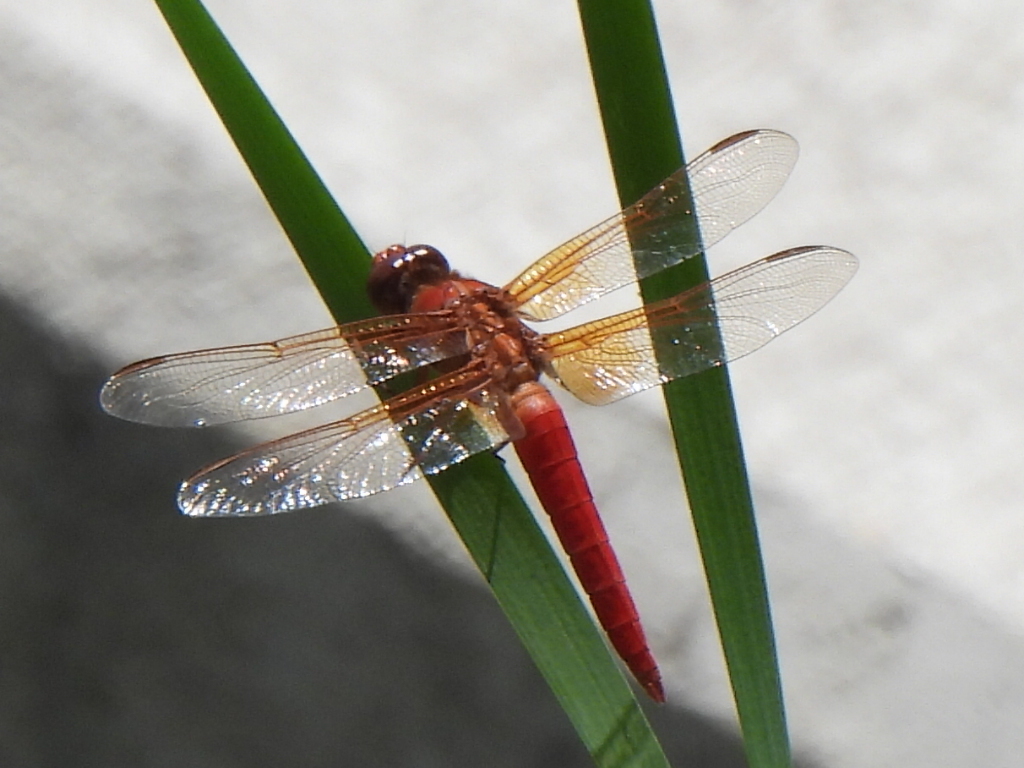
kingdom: Animalia
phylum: Arthropoda
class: Insecta
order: Odonata
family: Libellulidae
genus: Libellula
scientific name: Libellula croceipennis
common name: Neon skimmer
